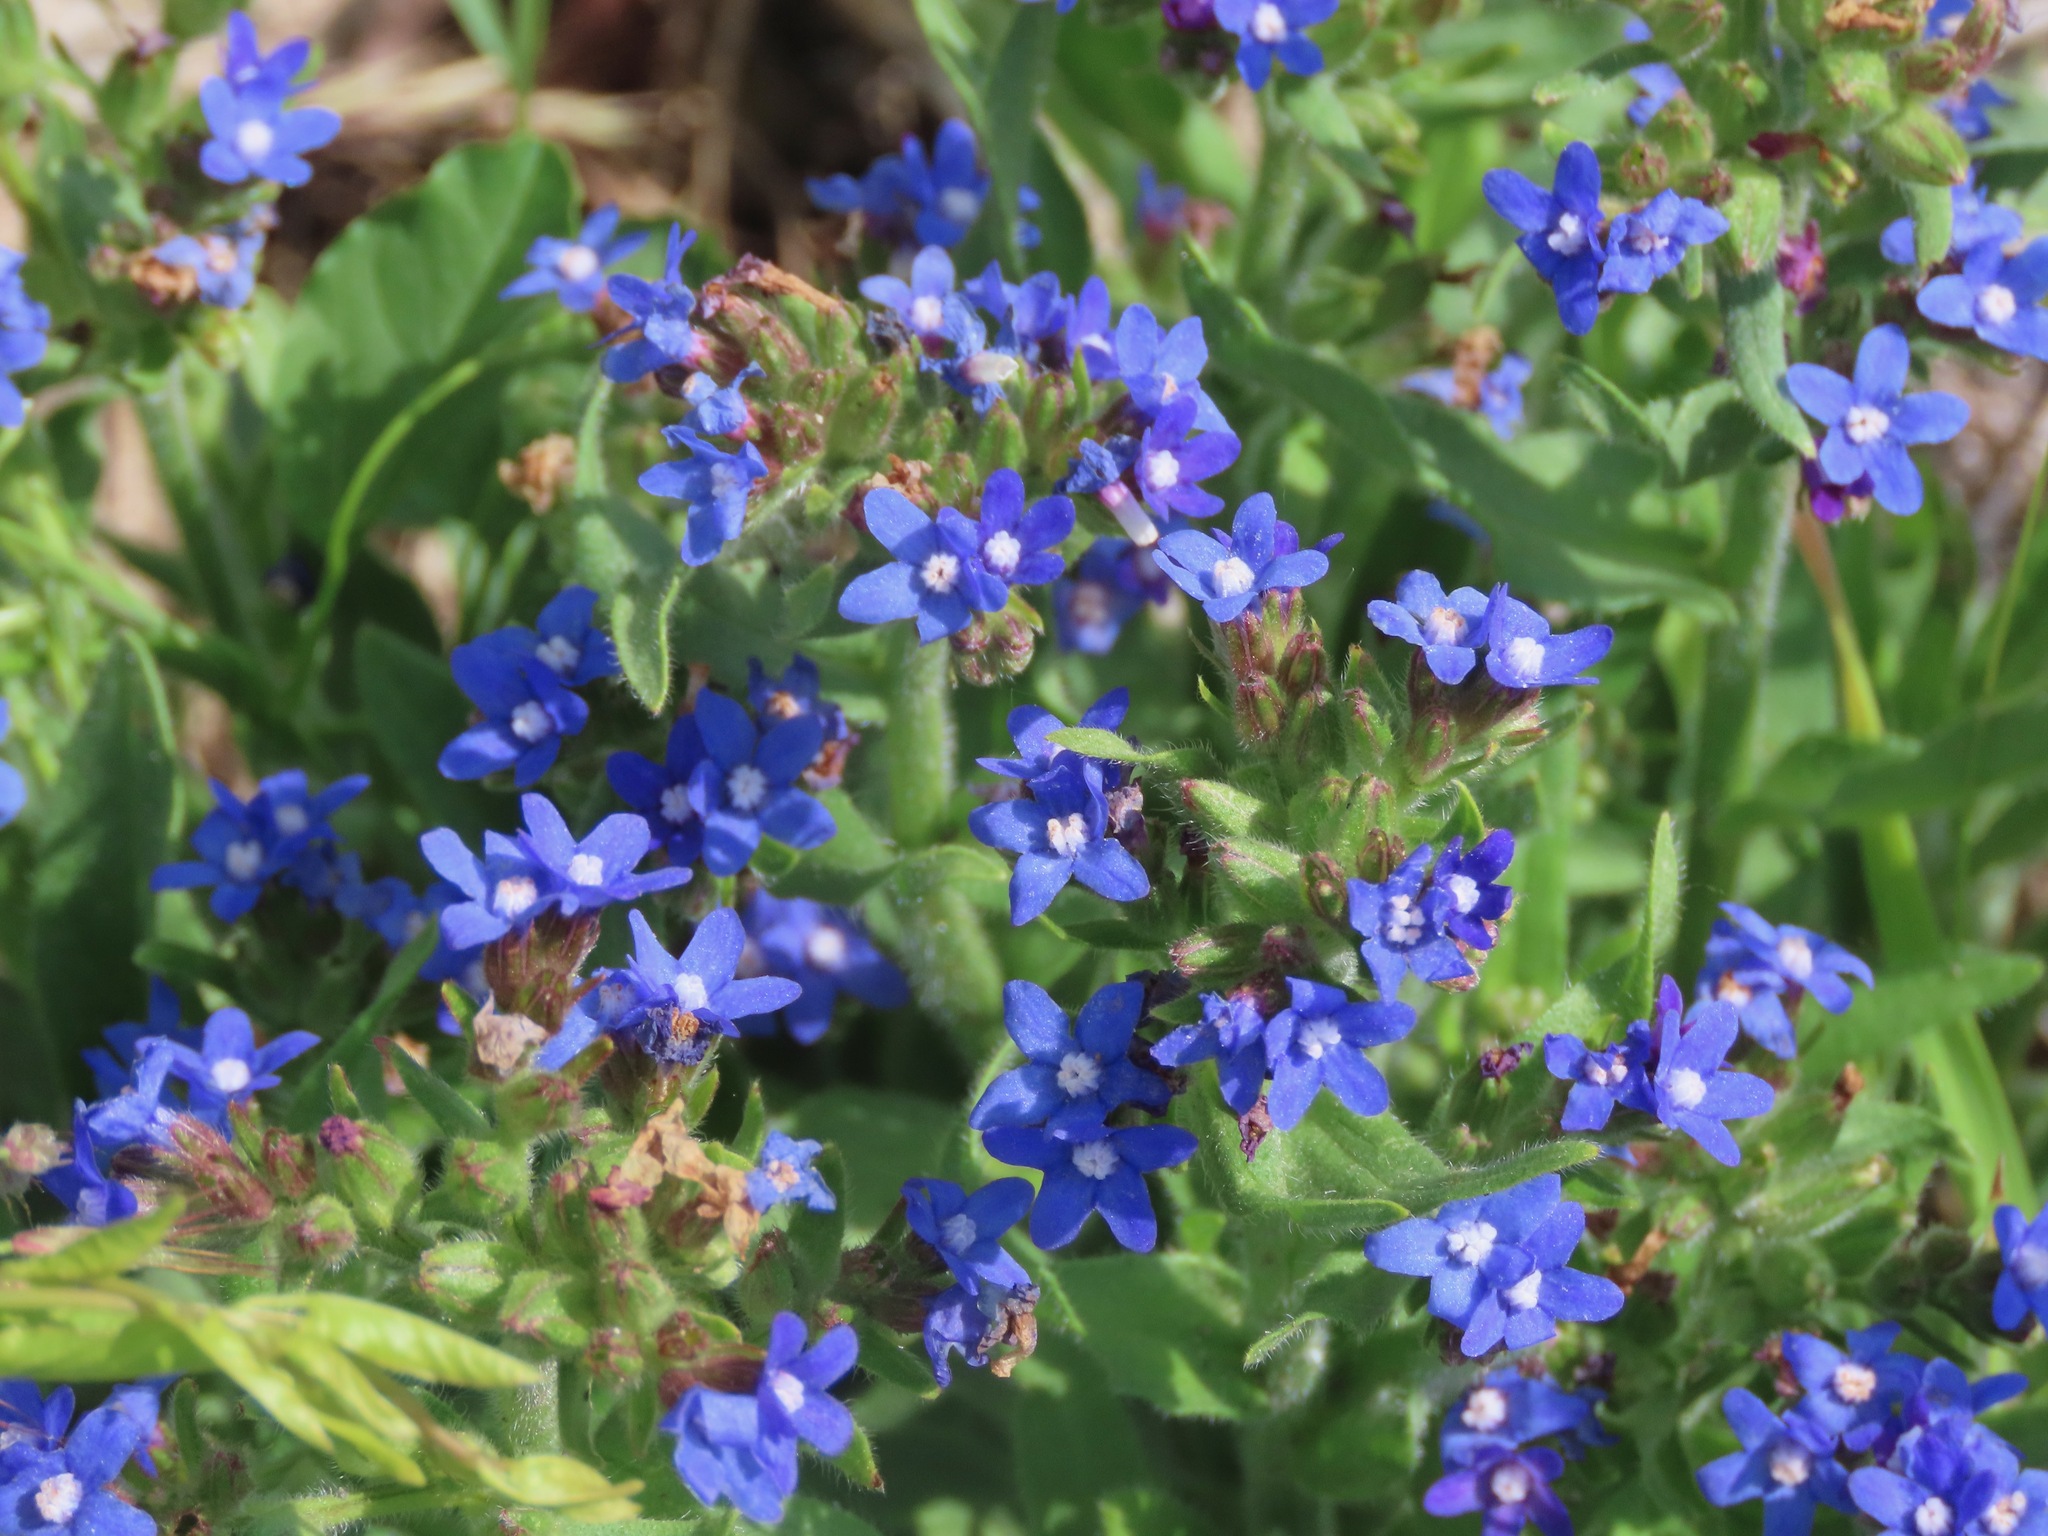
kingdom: Plantae
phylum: Tracheophyta
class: Magnoliopsida
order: Boraginales
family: Boraginaceae
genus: Anchusa
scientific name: Anchusa officinalis
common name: Alkanet
